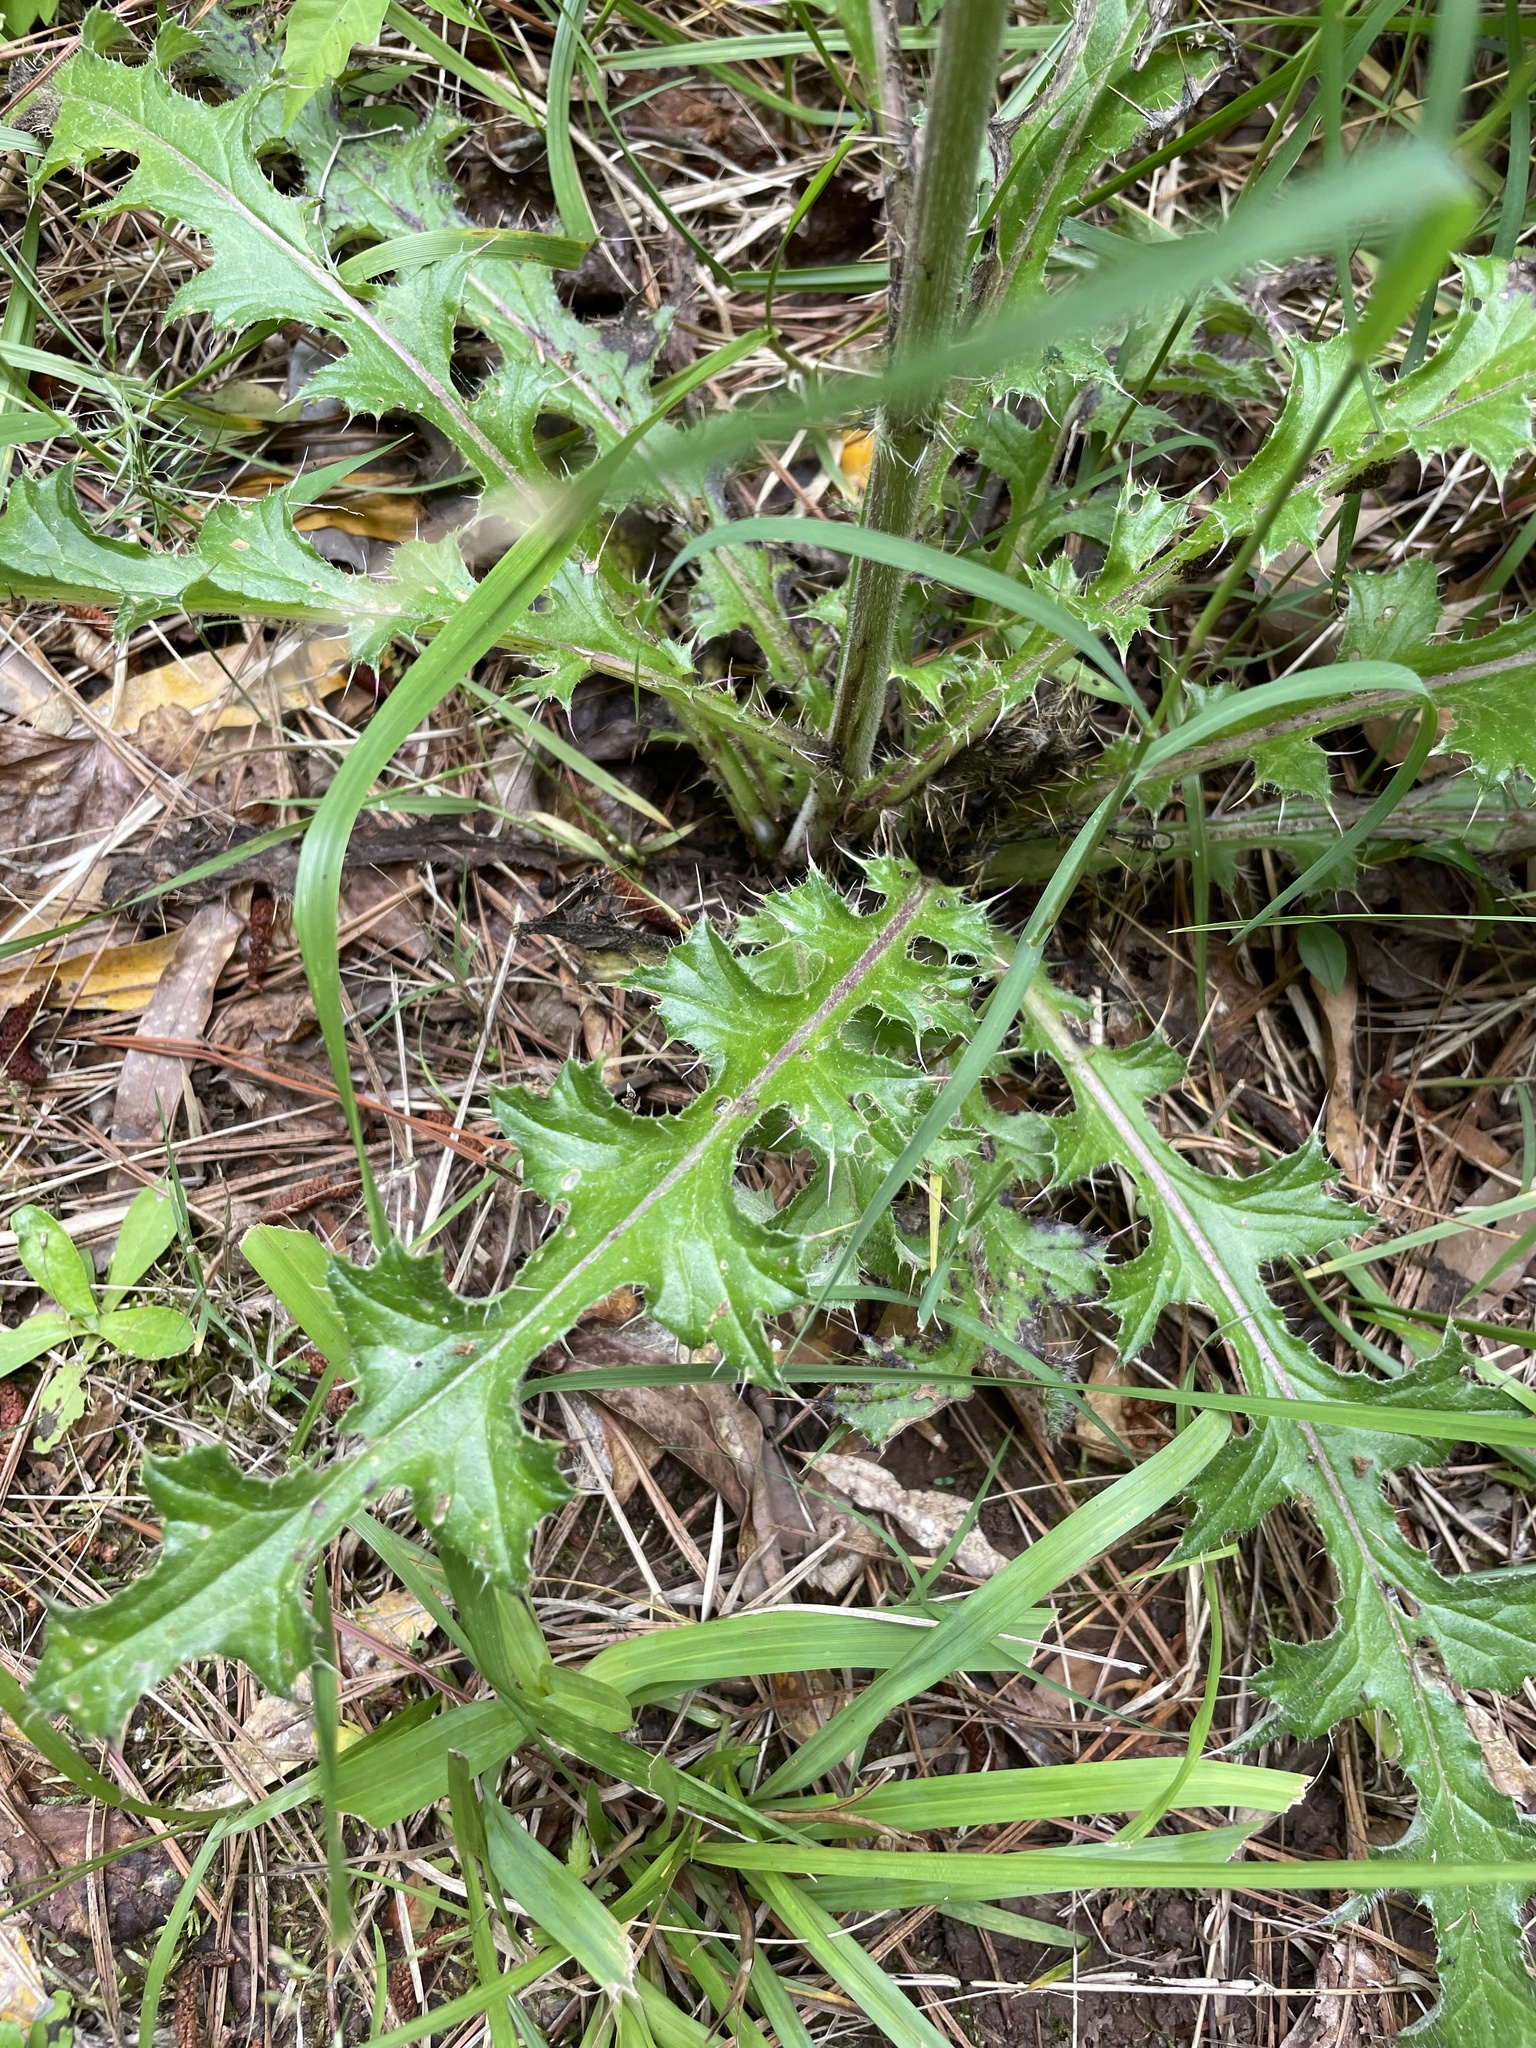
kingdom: Plantae
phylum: Tracheophyta
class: Magnoliopsida
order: Asterales
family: Asteraceae
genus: Cirsium
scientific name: Cirsium horridulum
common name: Bristly thistle
